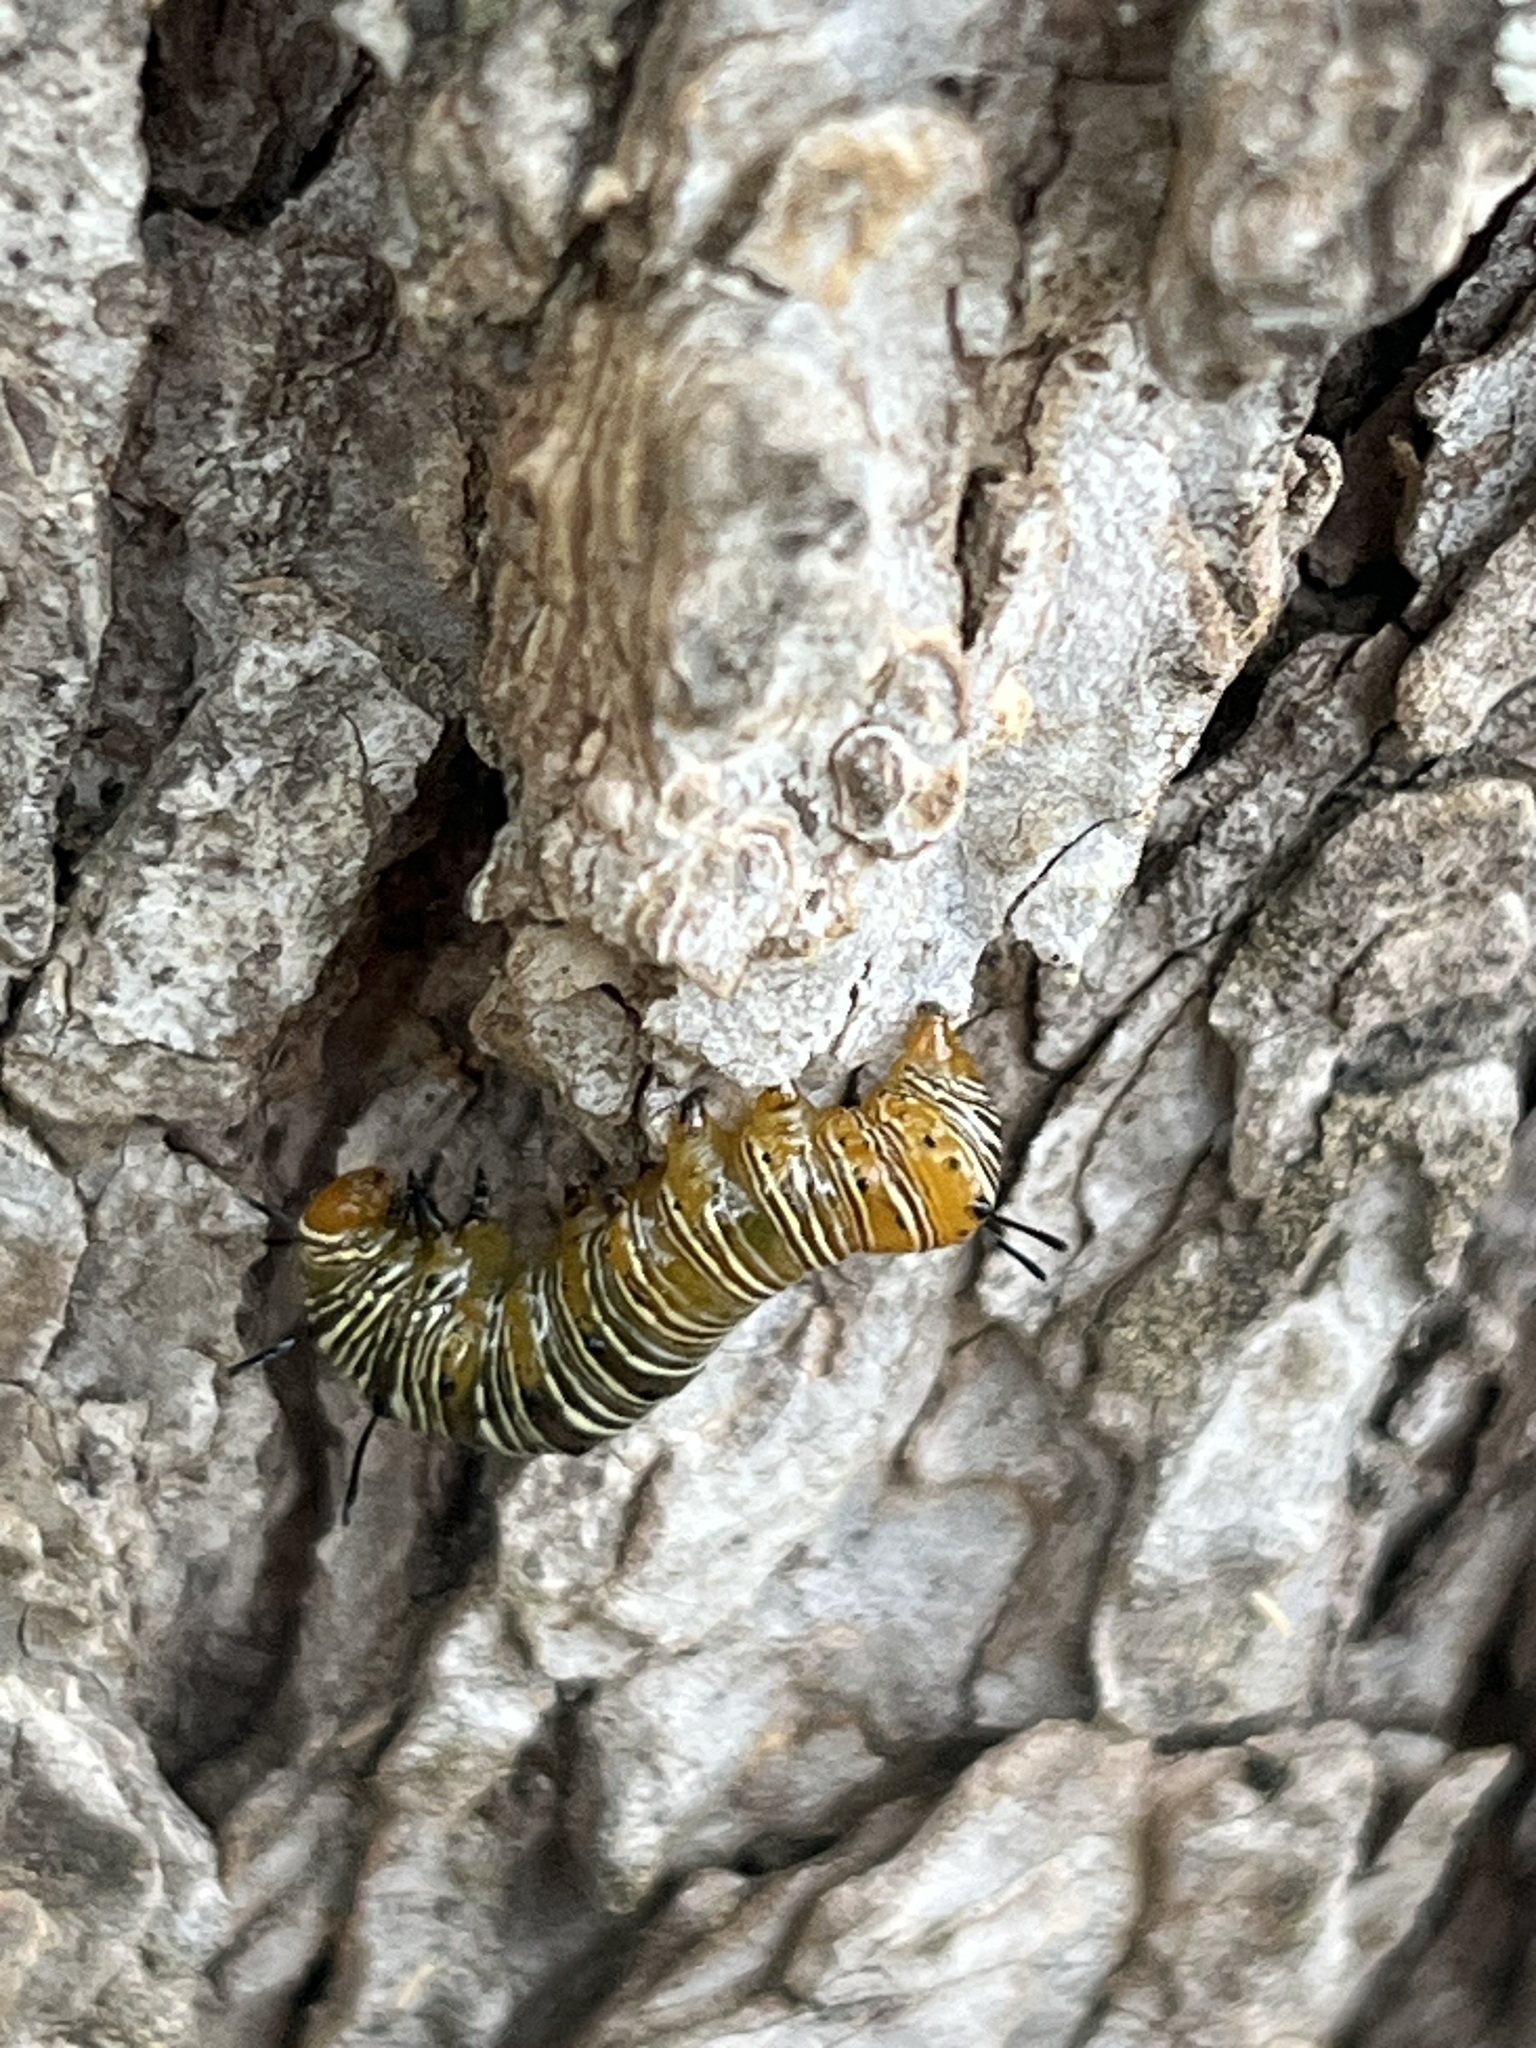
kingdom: Animalia
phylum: Arthropoda
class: Insecta
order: Lepidoptera
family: Noctuidae
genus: Xerociris
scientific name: Xerociris wilsonii
